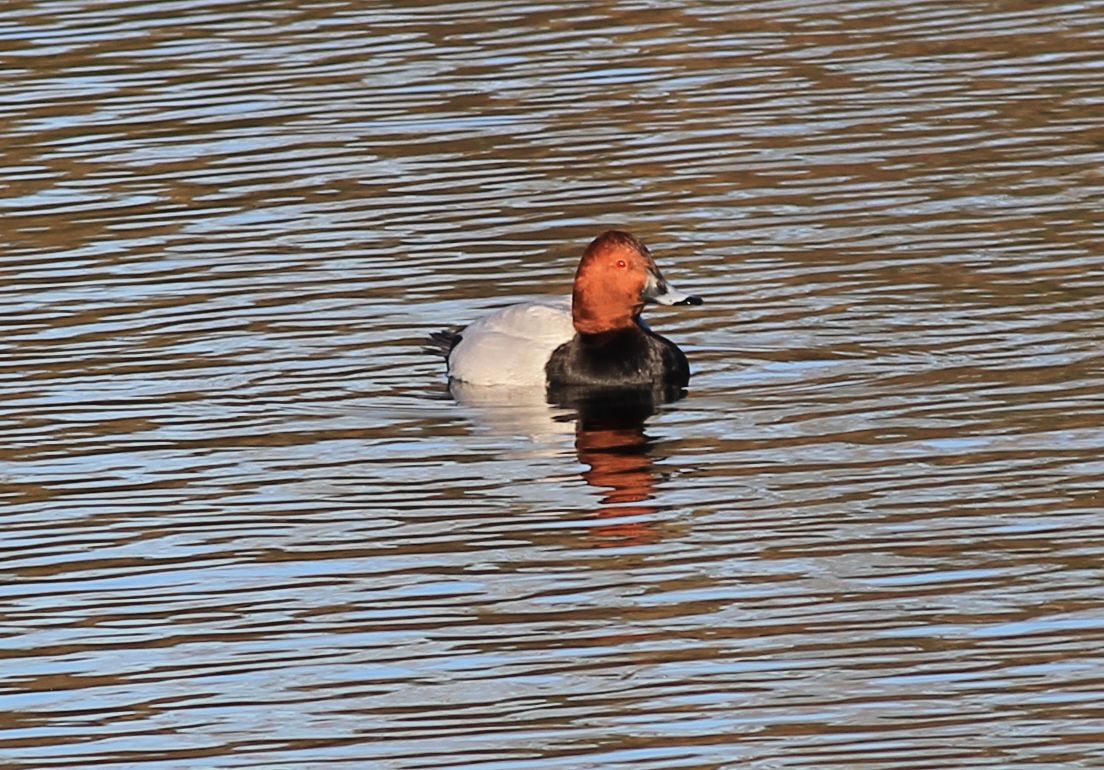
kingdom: Animalia
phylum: Chordata
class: Aves
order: Anseriformes
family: Anatidae
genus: Aythya
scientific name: Aythya ferina
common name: Common pochard
